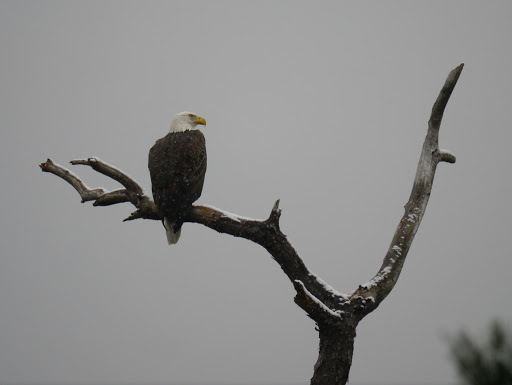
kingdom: Animalia
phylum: Chordata
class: Aves
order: Accipitriformes
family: Accipitridae
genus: Haliaeetus
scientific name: Haliaeetus leucocephalus
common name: Bald eagle
